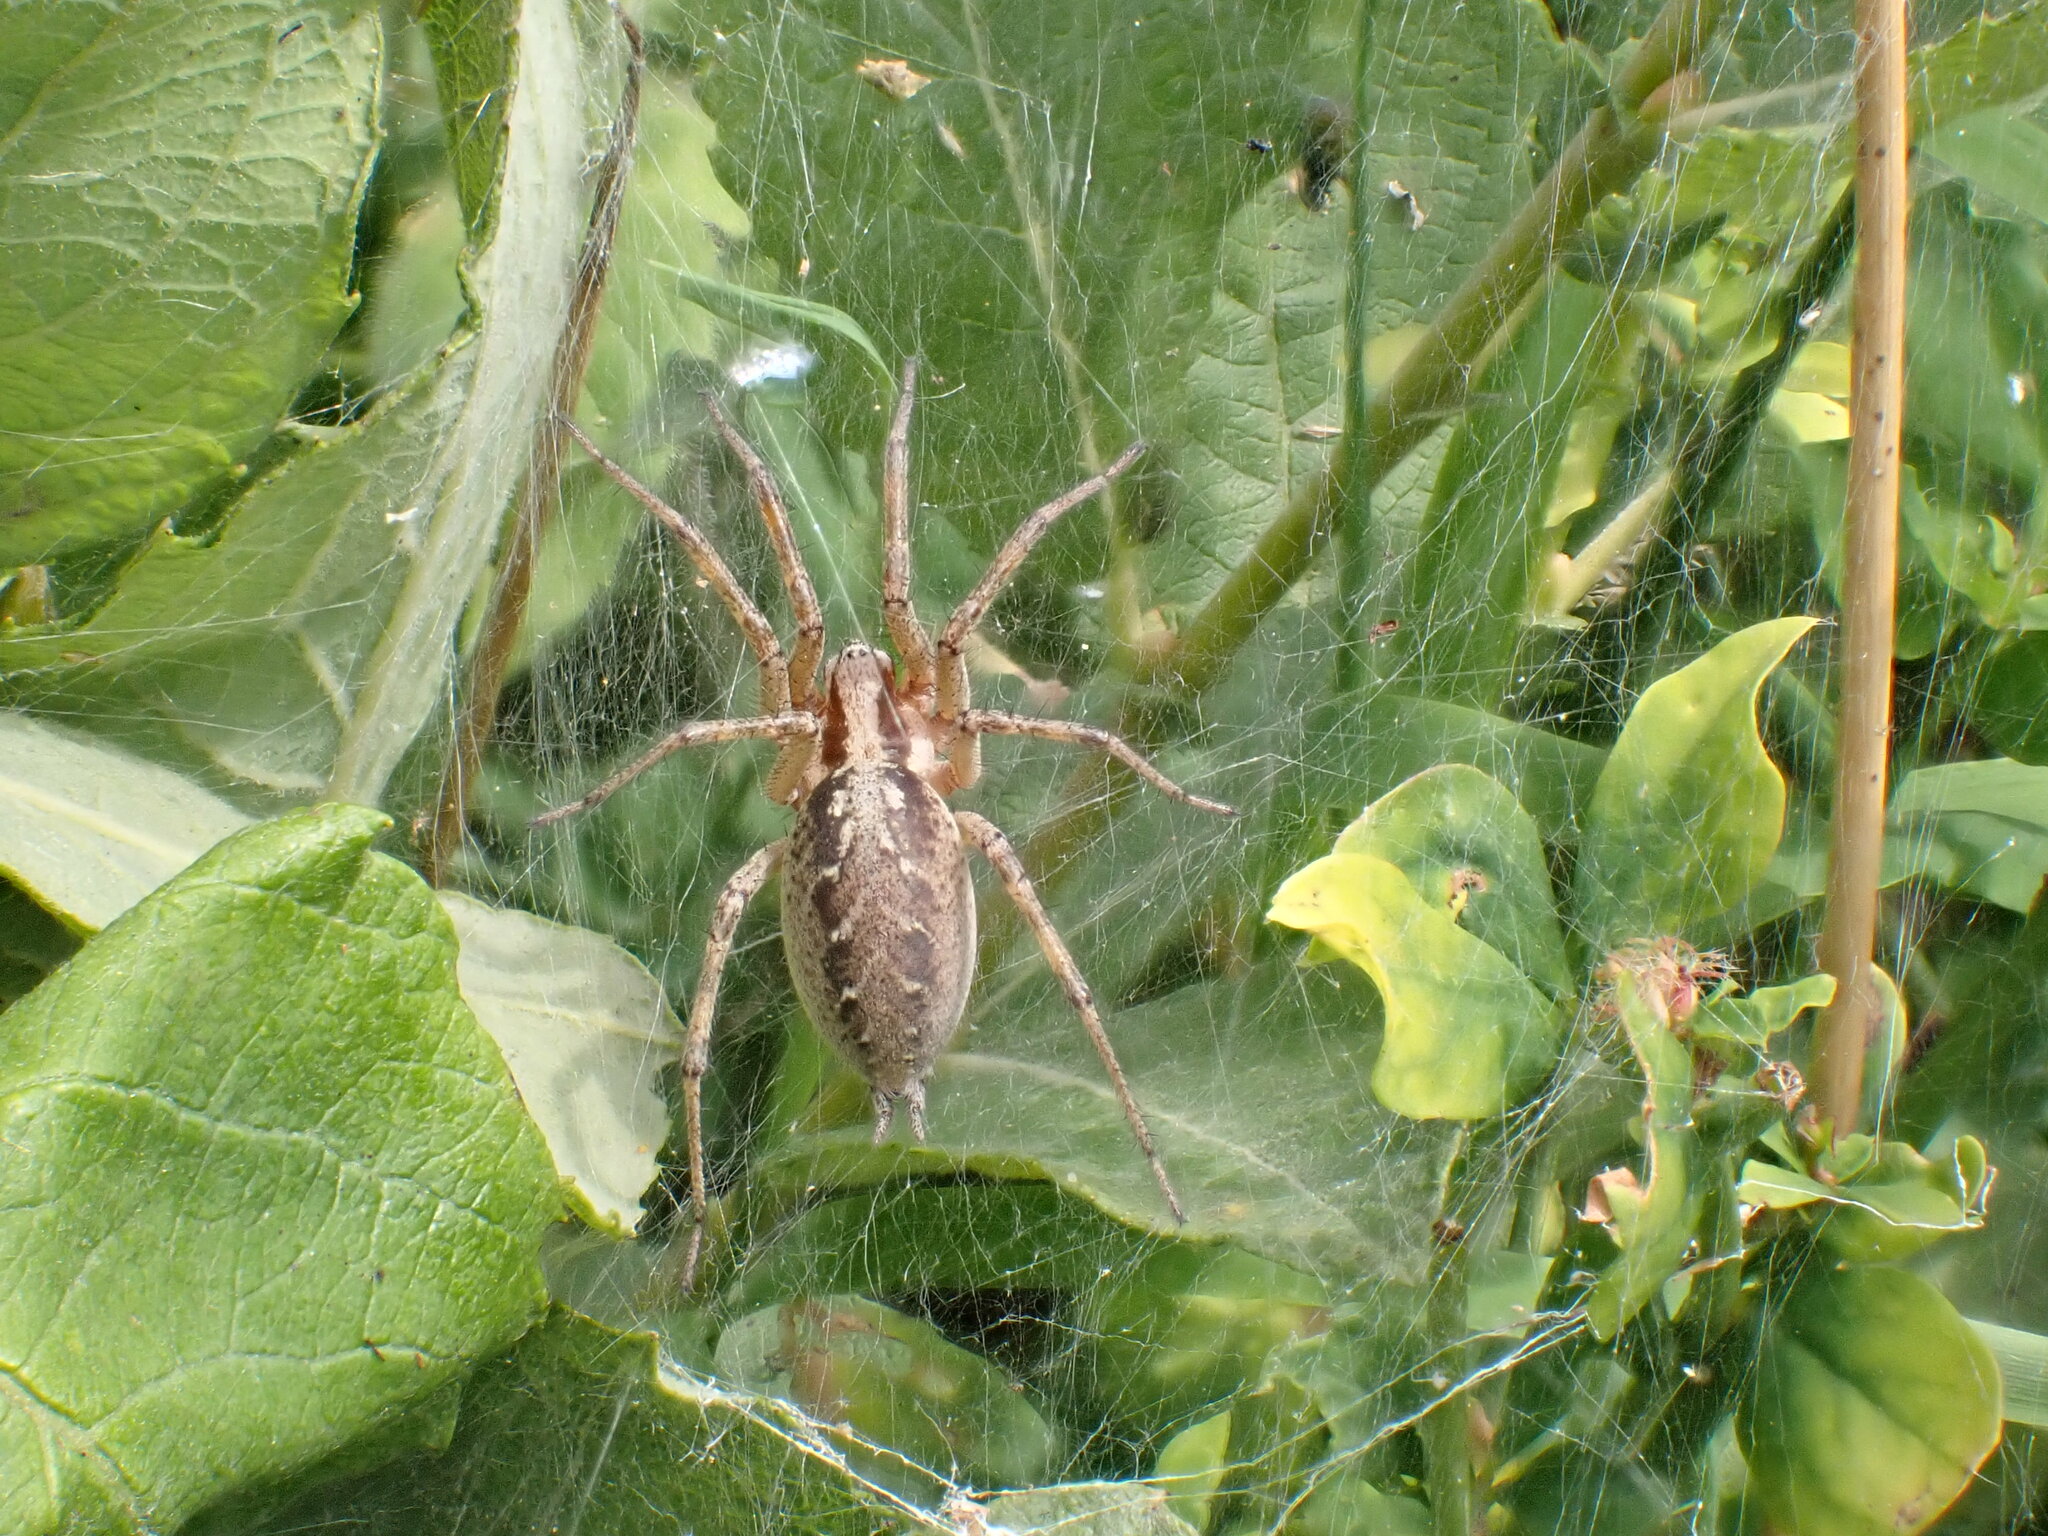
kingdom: Animalia
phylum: Arthropoda
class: Arachnida
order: Araneae
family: Agelenidae
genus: Agelena
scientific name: Agelena labyrinthica
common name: Labyrinth spider
